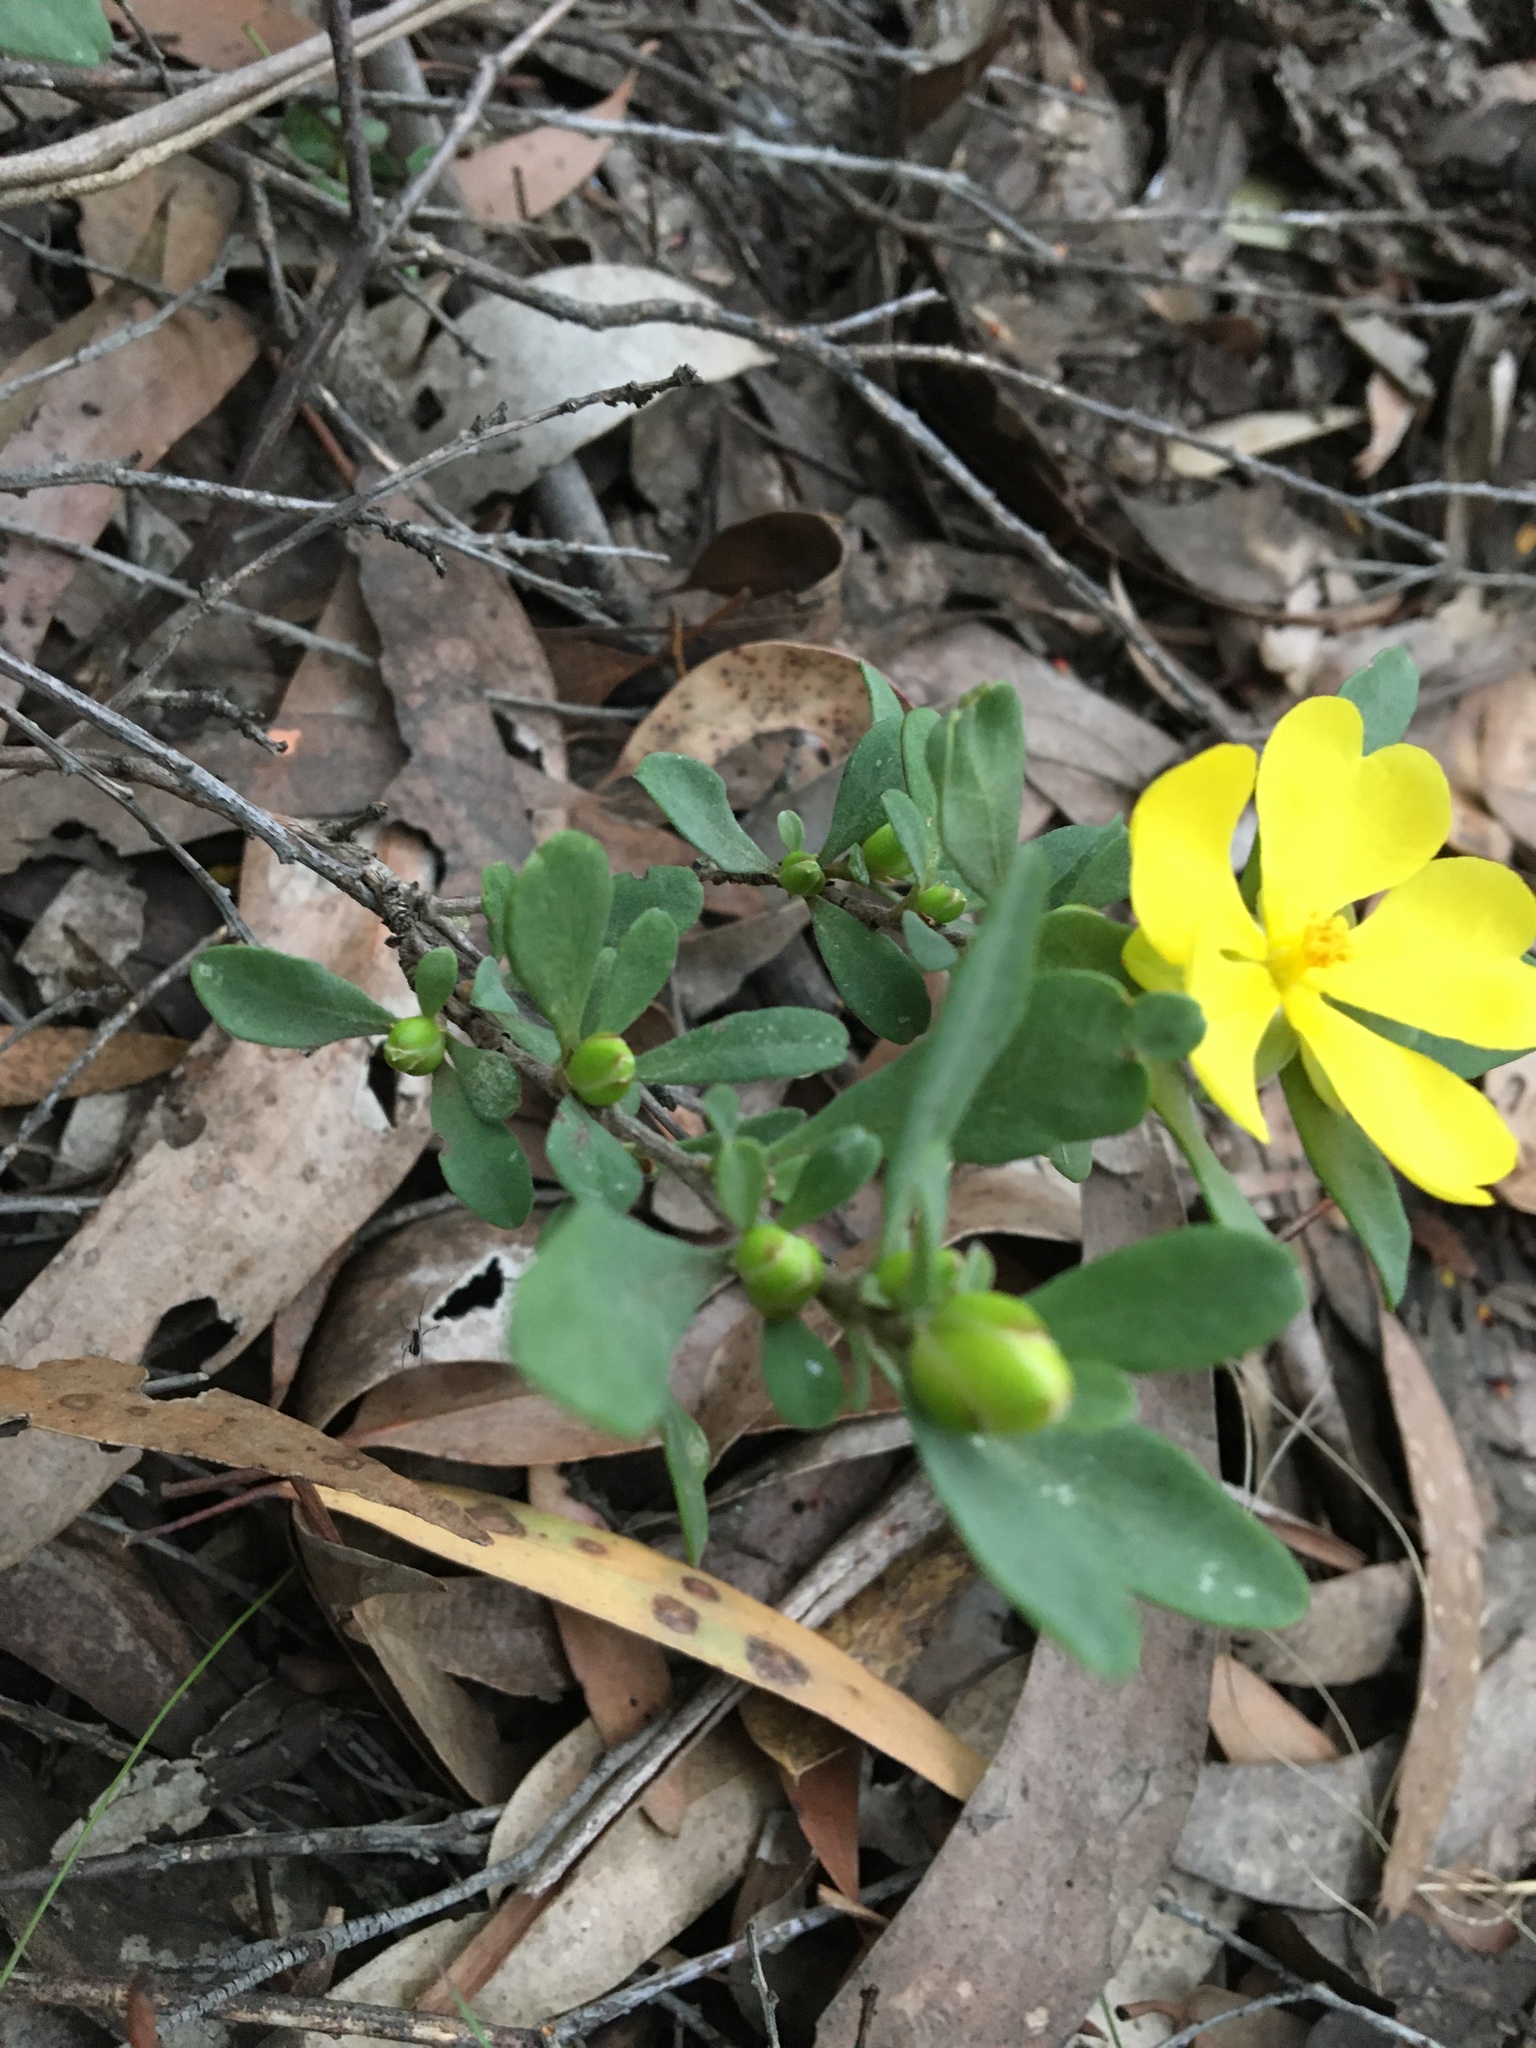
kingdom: Plantae
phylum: Tracheophyta
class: Magnoliopsida
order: Dilleniales
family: Dilleniaceae
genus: Hibbertia
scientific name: Hibbertia obtusifolia
